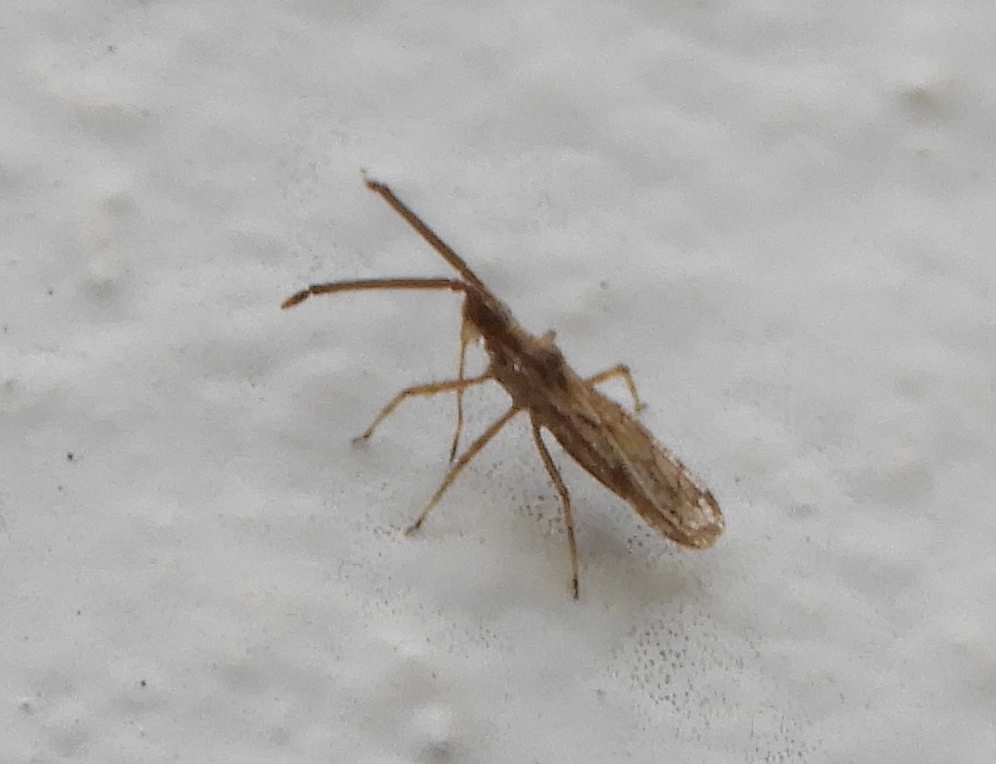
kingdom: Animalia
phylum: Arthropoda
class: Insecta
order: Hemiptera
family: Tingidae
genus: Teleonemia
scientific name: Teleonemia
